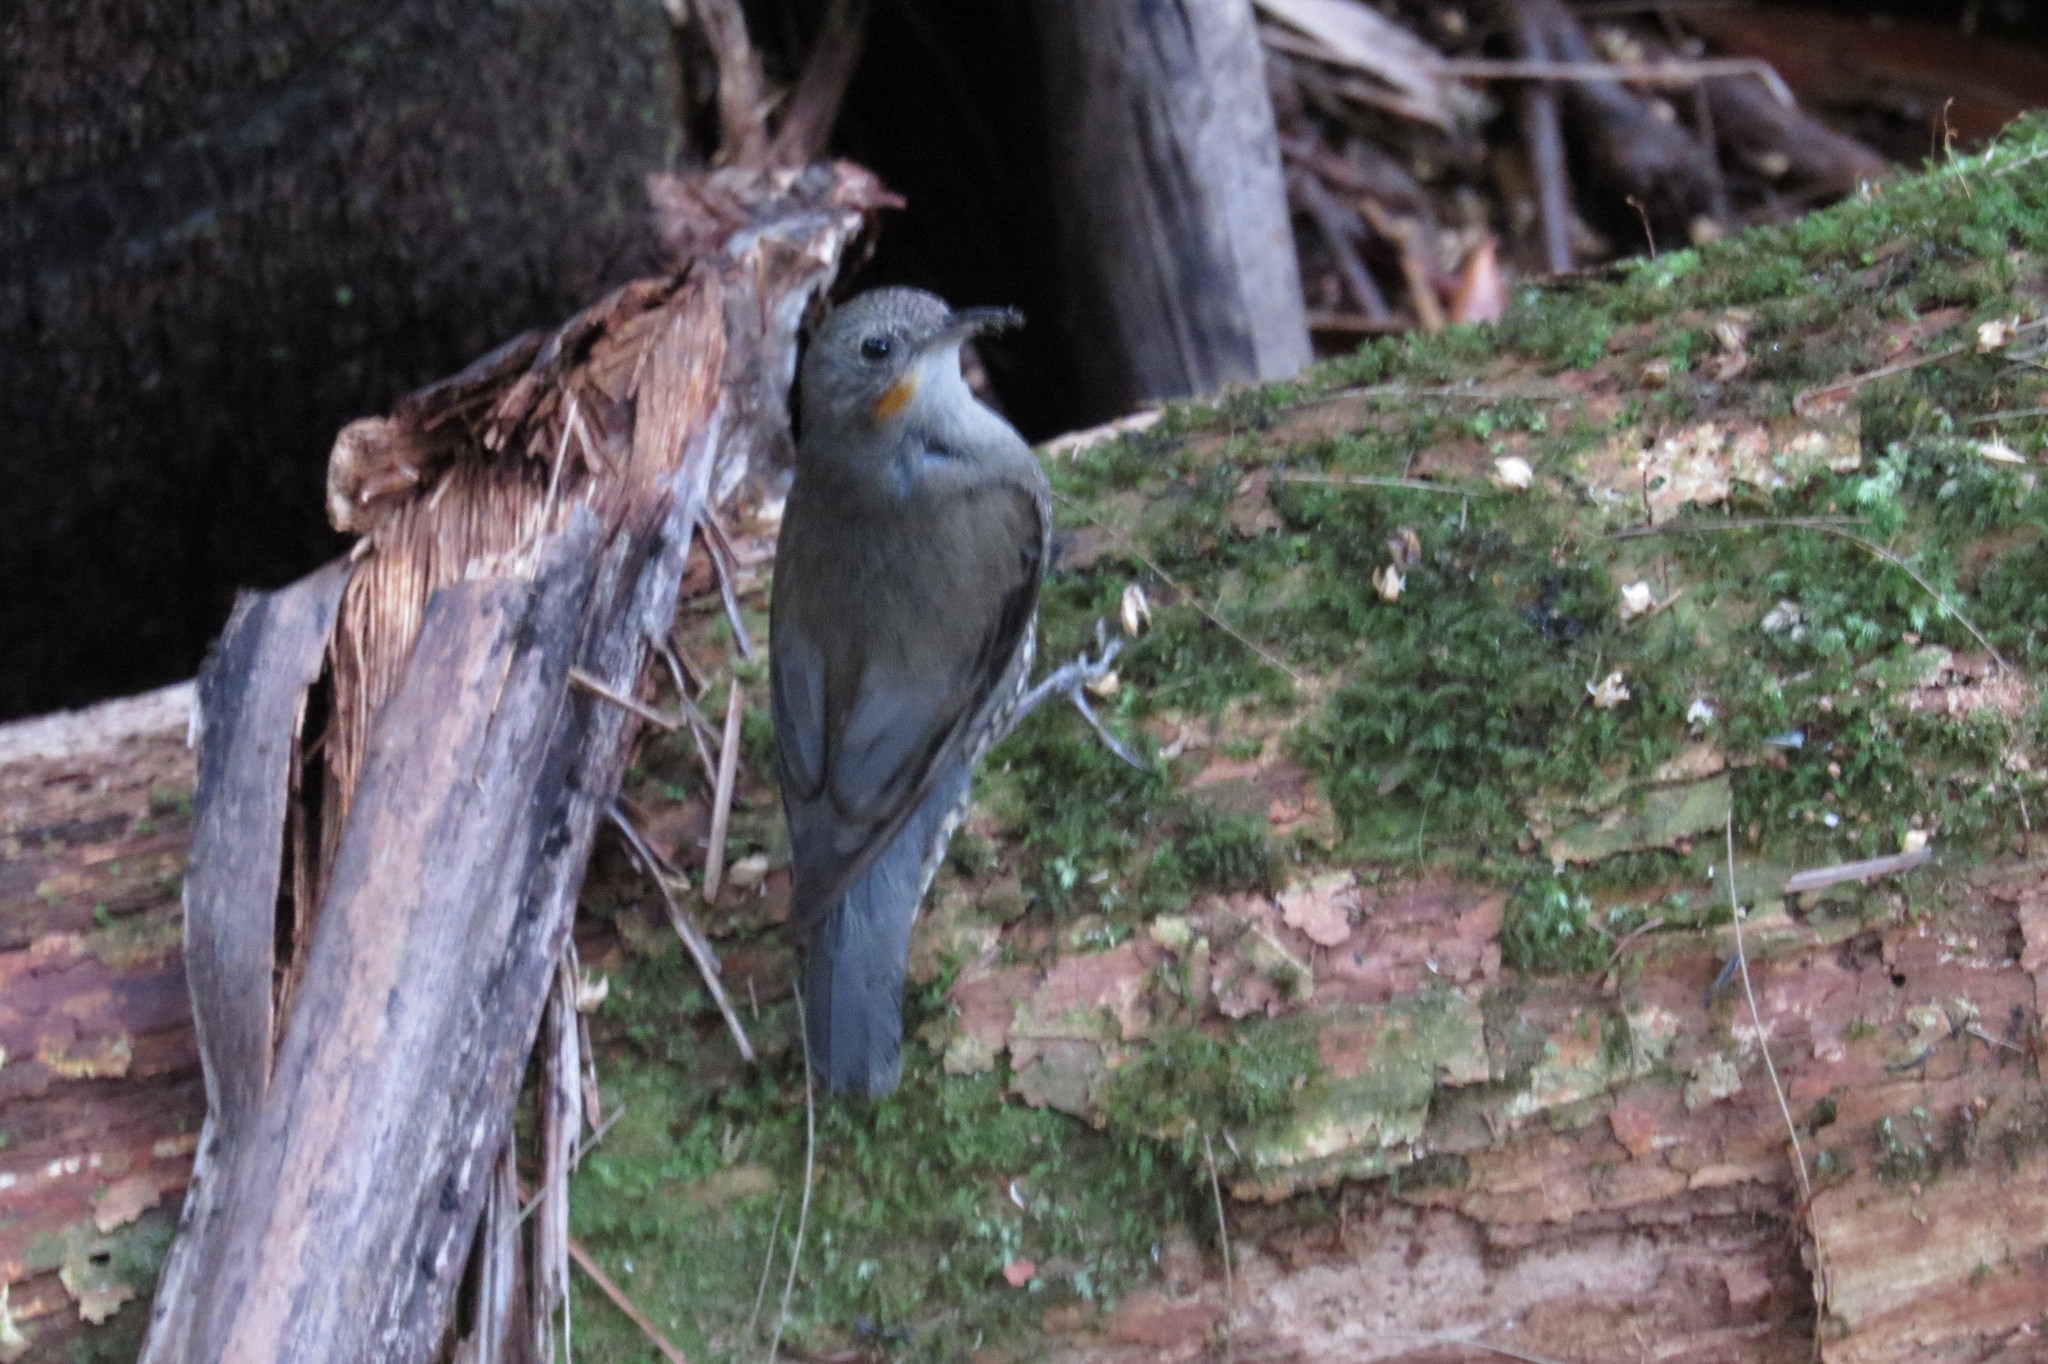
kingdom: Animalia
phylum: Chordata
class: Aves
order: Passeriformes
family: Climacteridae
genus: Cormobates
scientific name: Cormobates leucophaea
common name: White-throated treecreeper
